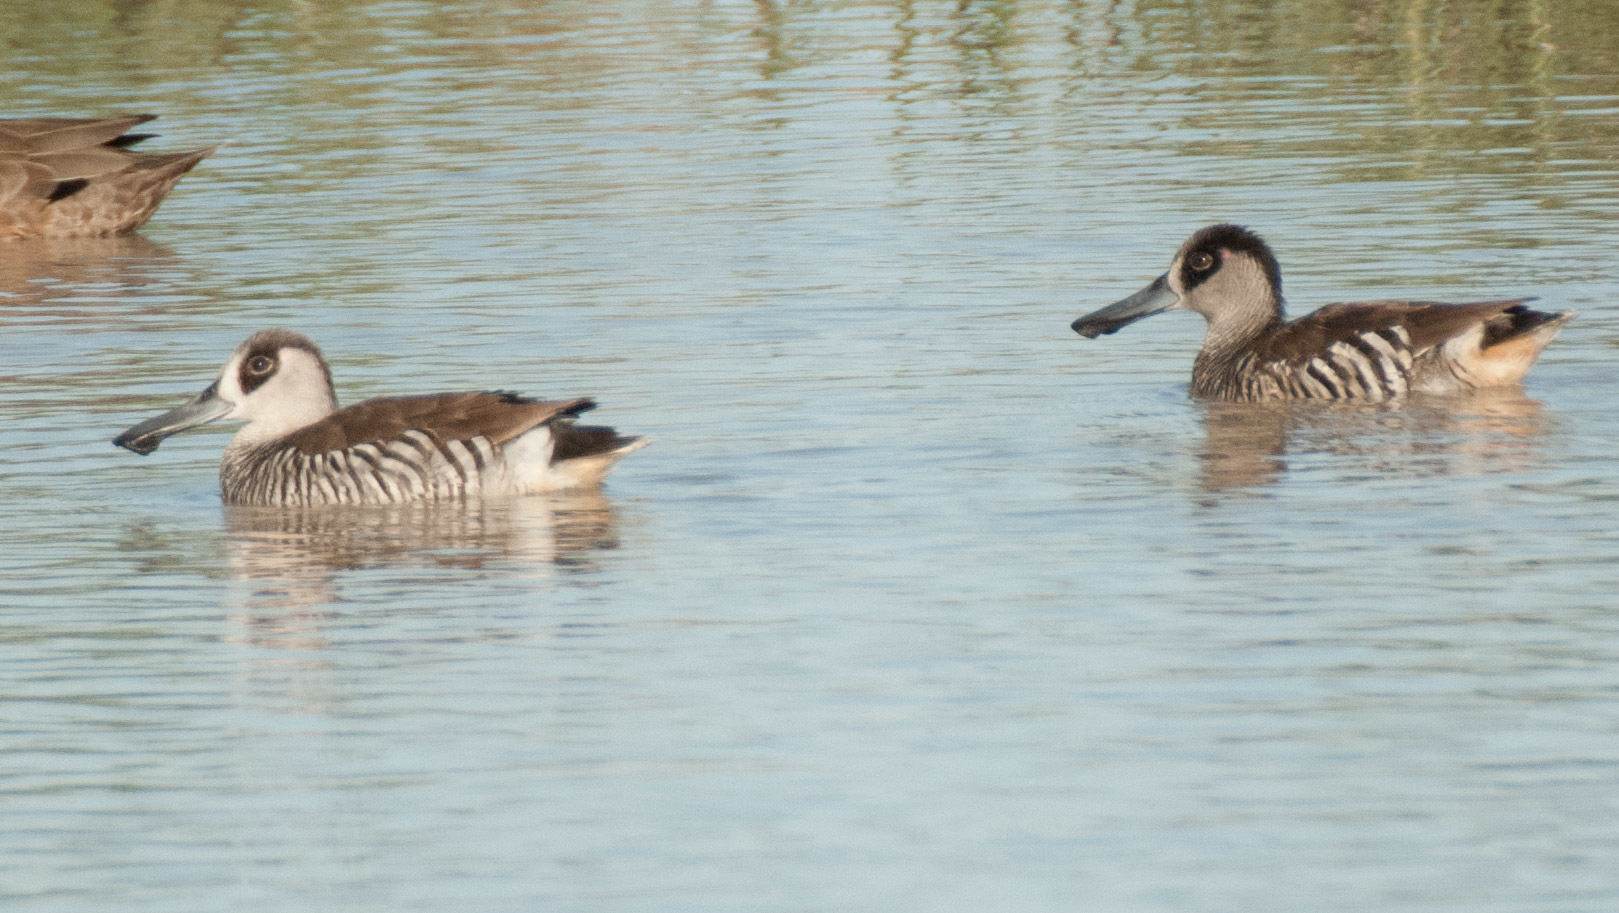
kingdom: Animalia
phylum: Chordata
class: Aves
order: Anseriformes
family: Anatidae
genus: Malacorhynchus
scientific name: Malacorhynchus membranaceus
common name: Pink-eared duck
